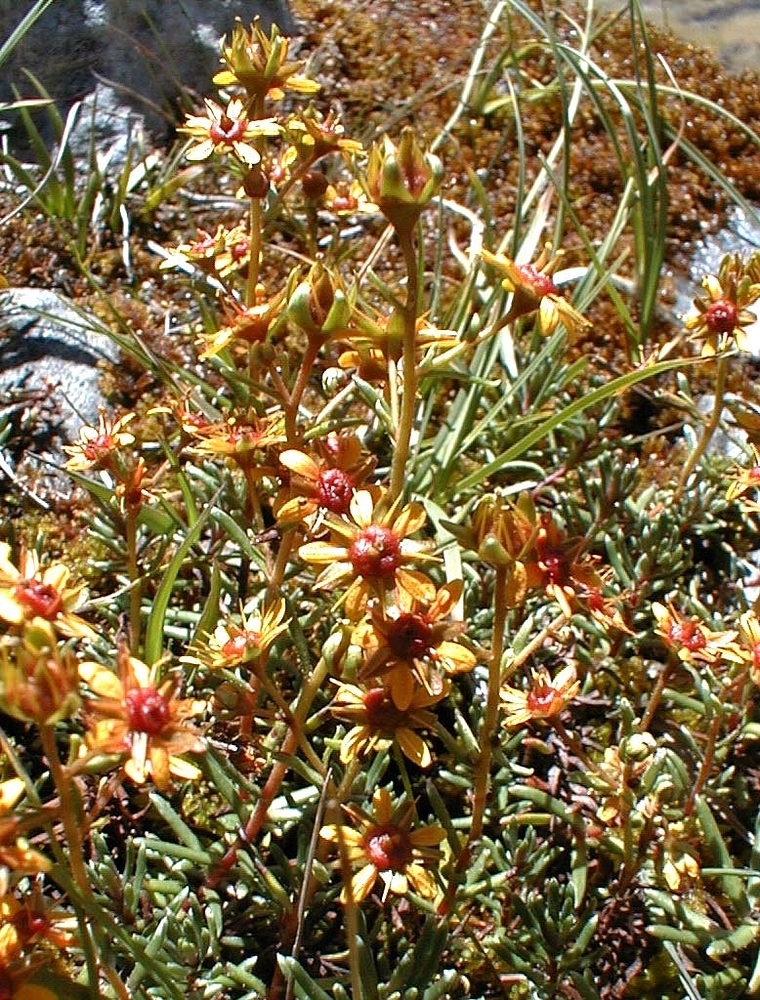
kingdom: Plantae
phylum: Tracheophyta
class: Magnoliopsida
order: Saxifragales
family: Saxifragaceae
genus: Saxifraga
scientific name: Saxifraga aizoides
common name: Yellow mountain saxifrage
